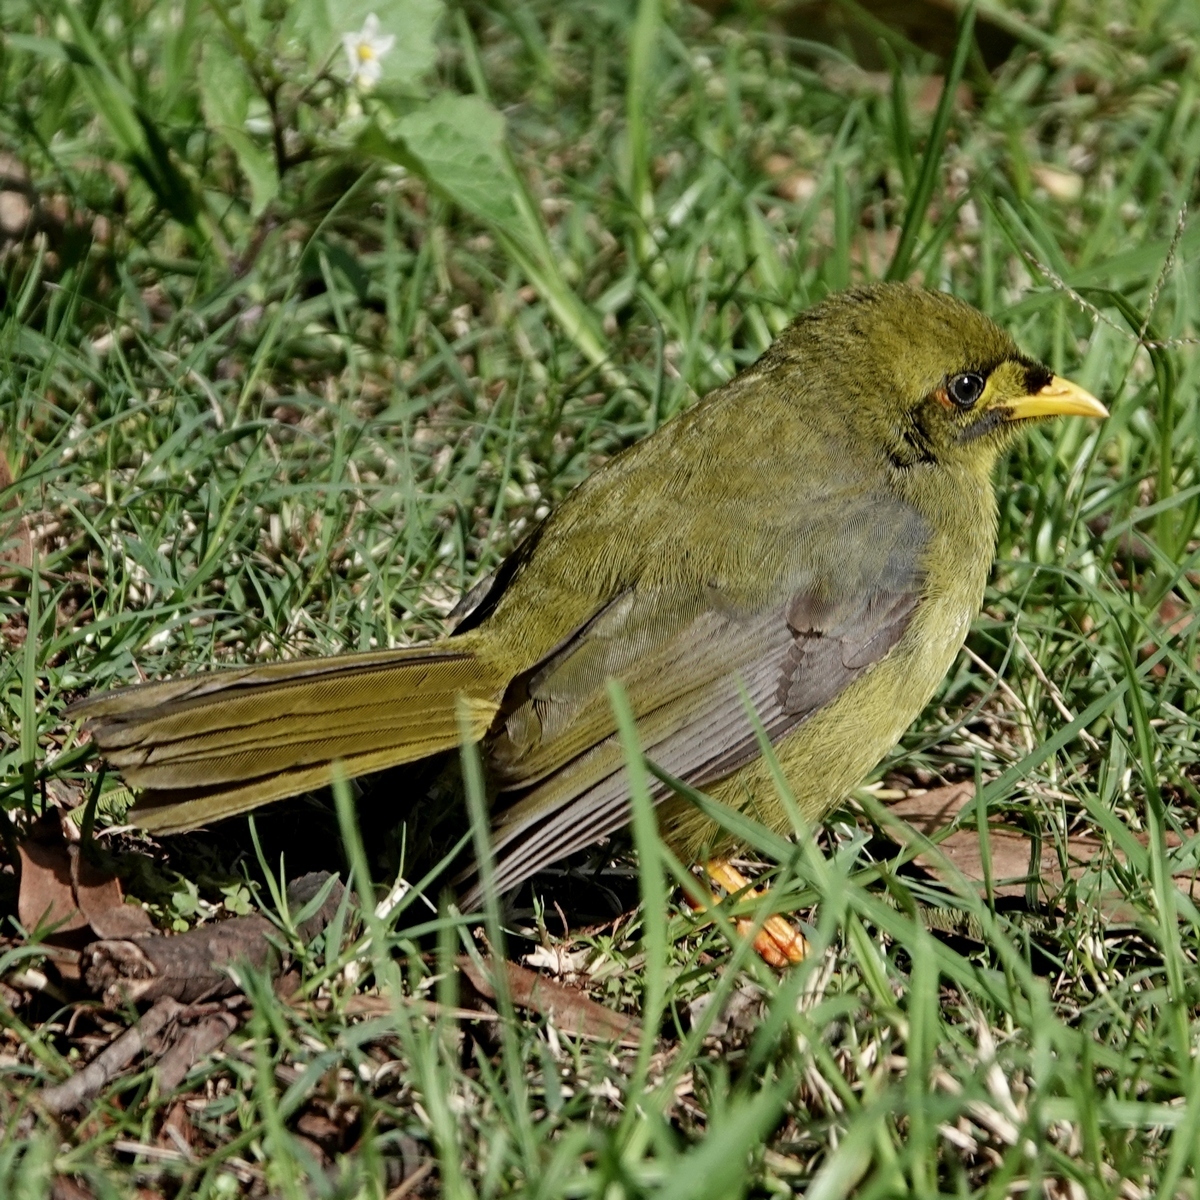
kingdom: Animalia
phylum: Chordata
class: Aves
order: Passeriformes
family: Meliphagidae
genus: Manorina
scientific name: Manorina melanophrys
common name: Bell miner
